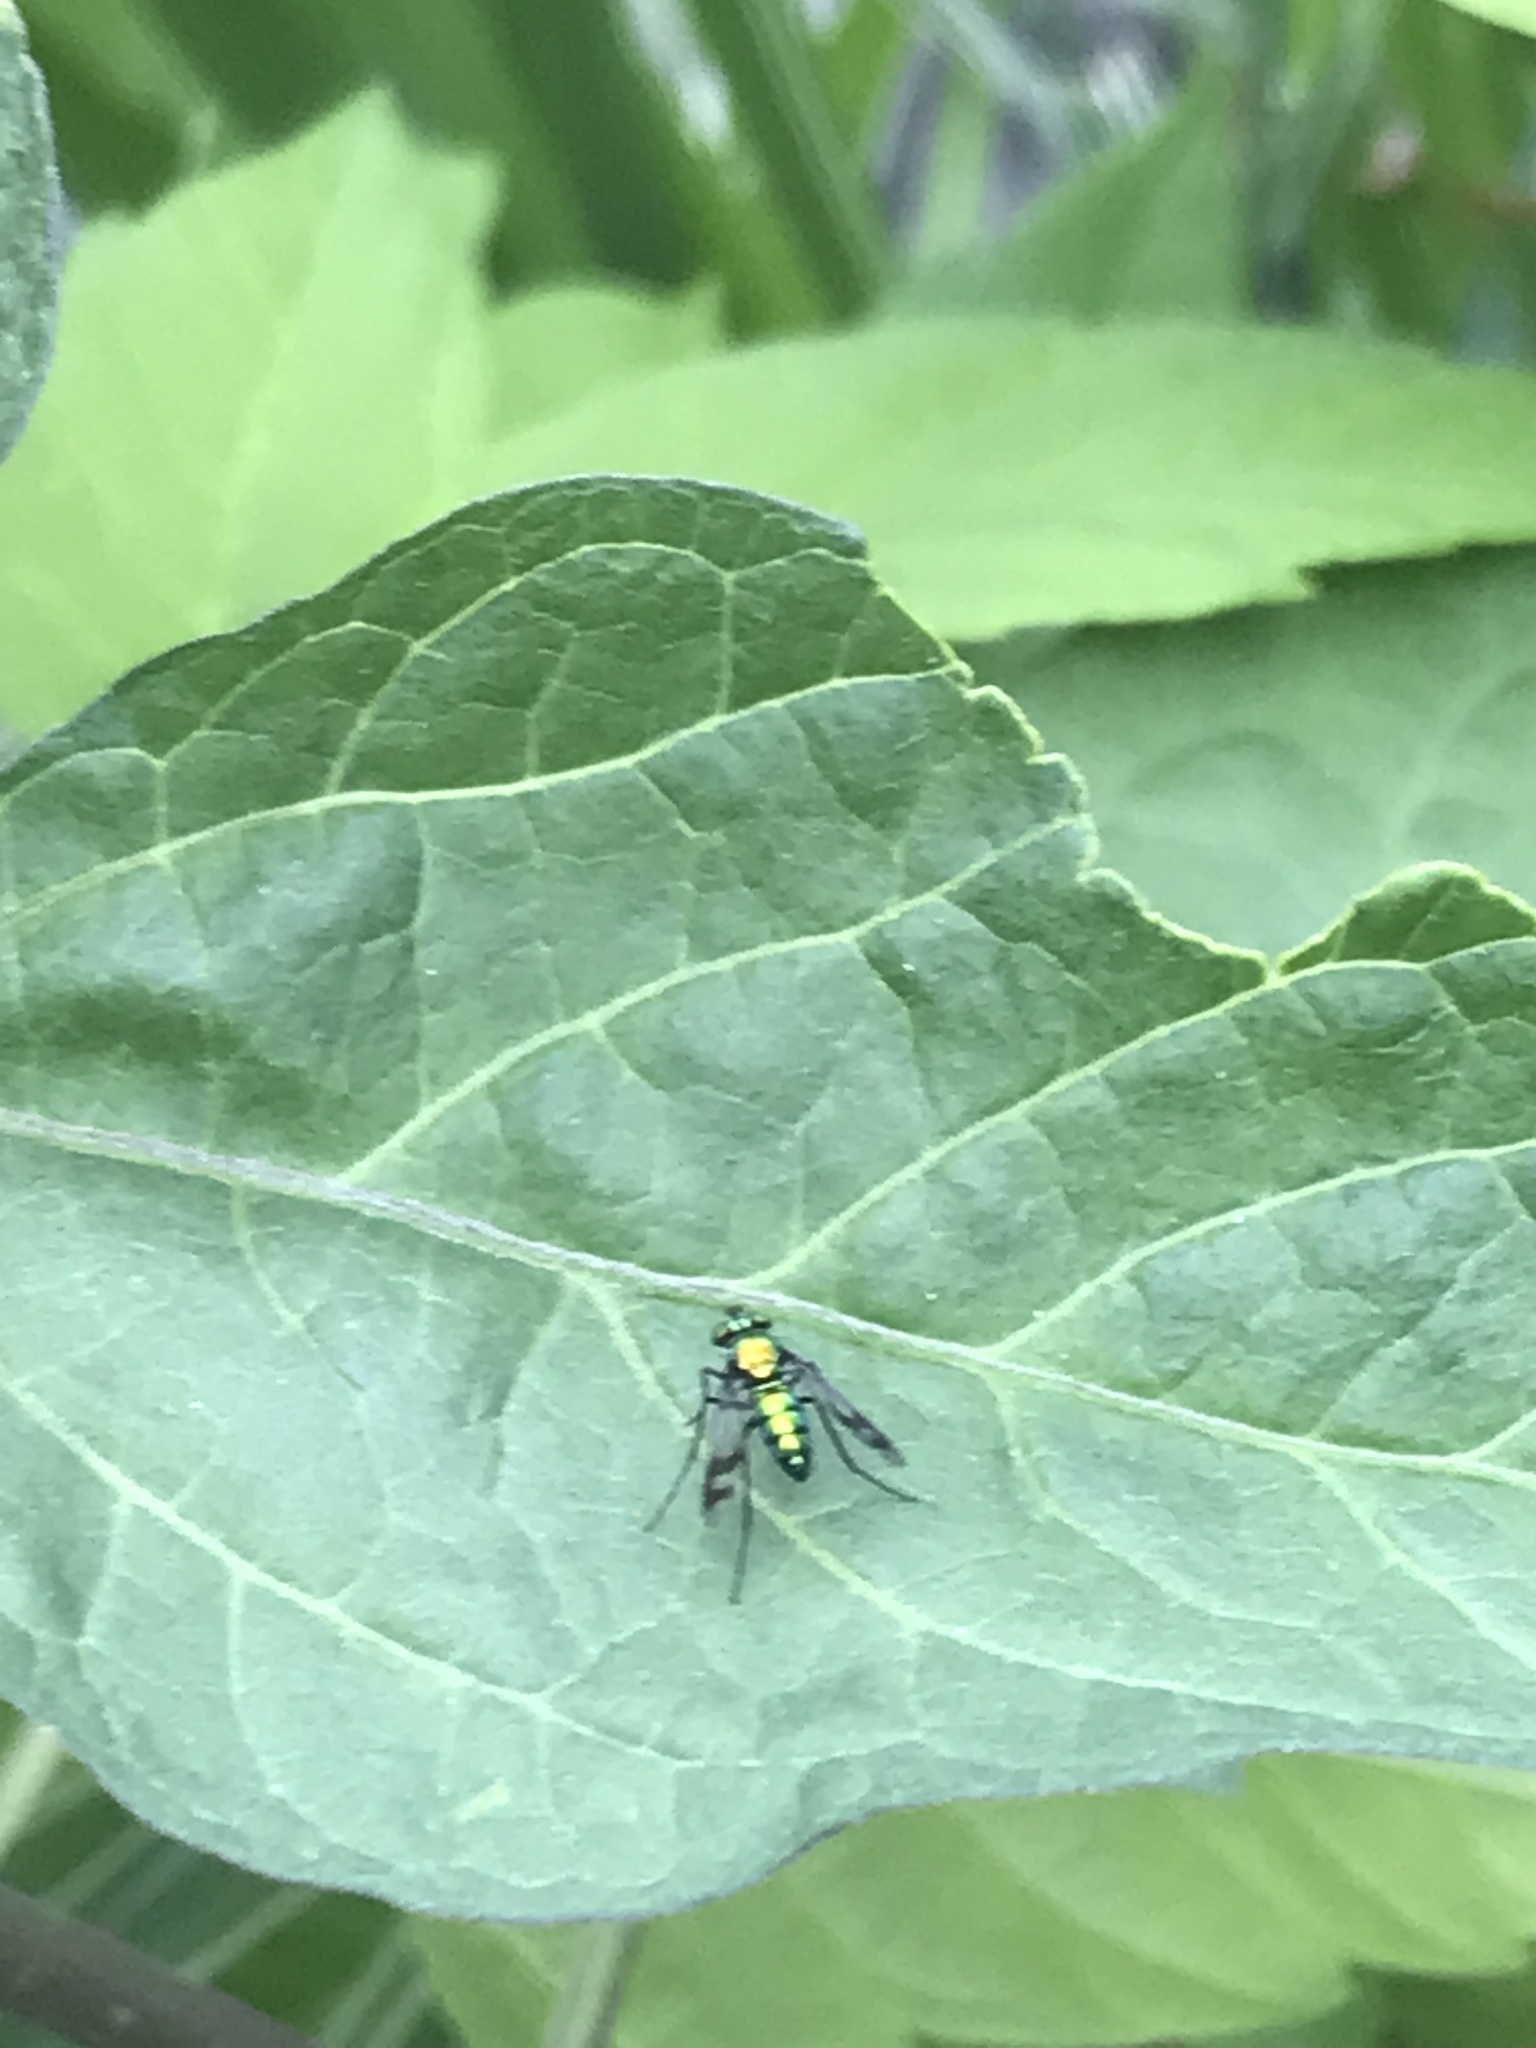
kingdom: Animalia
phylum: Arthropoda
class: Insecta
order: Diptera
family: Dolichopodidae
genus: Condylostylus
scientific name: Condylostylus occidentalis
